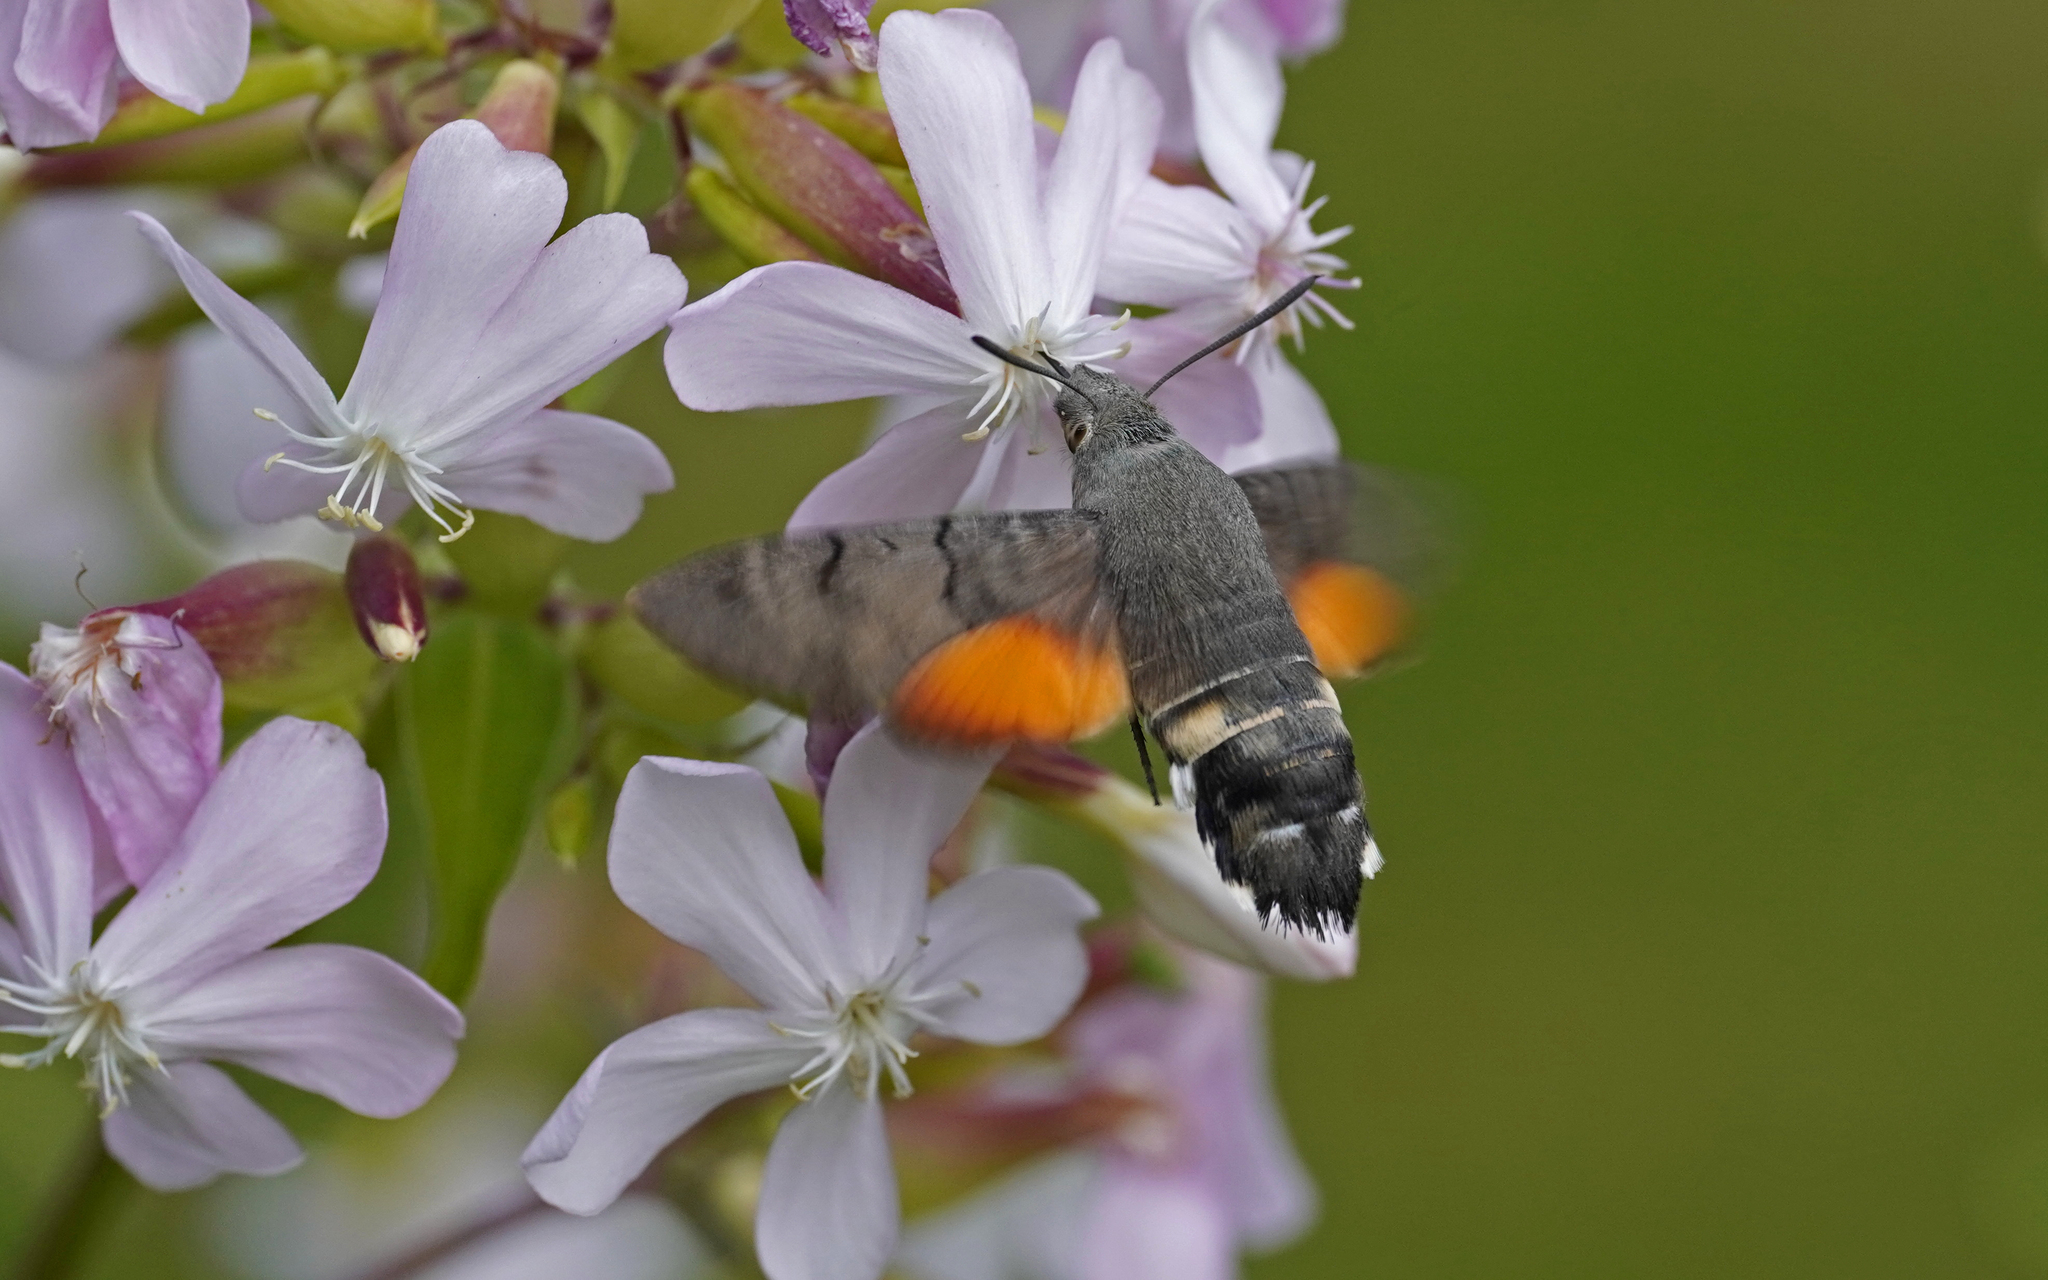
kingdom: Animalia
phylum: Arthropoda
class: Insecta
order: Lepidoptera
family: Sphingidae
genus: Macroglossum
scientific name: Macroglossum stellatarum
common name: Humming-bird hawk-moth
